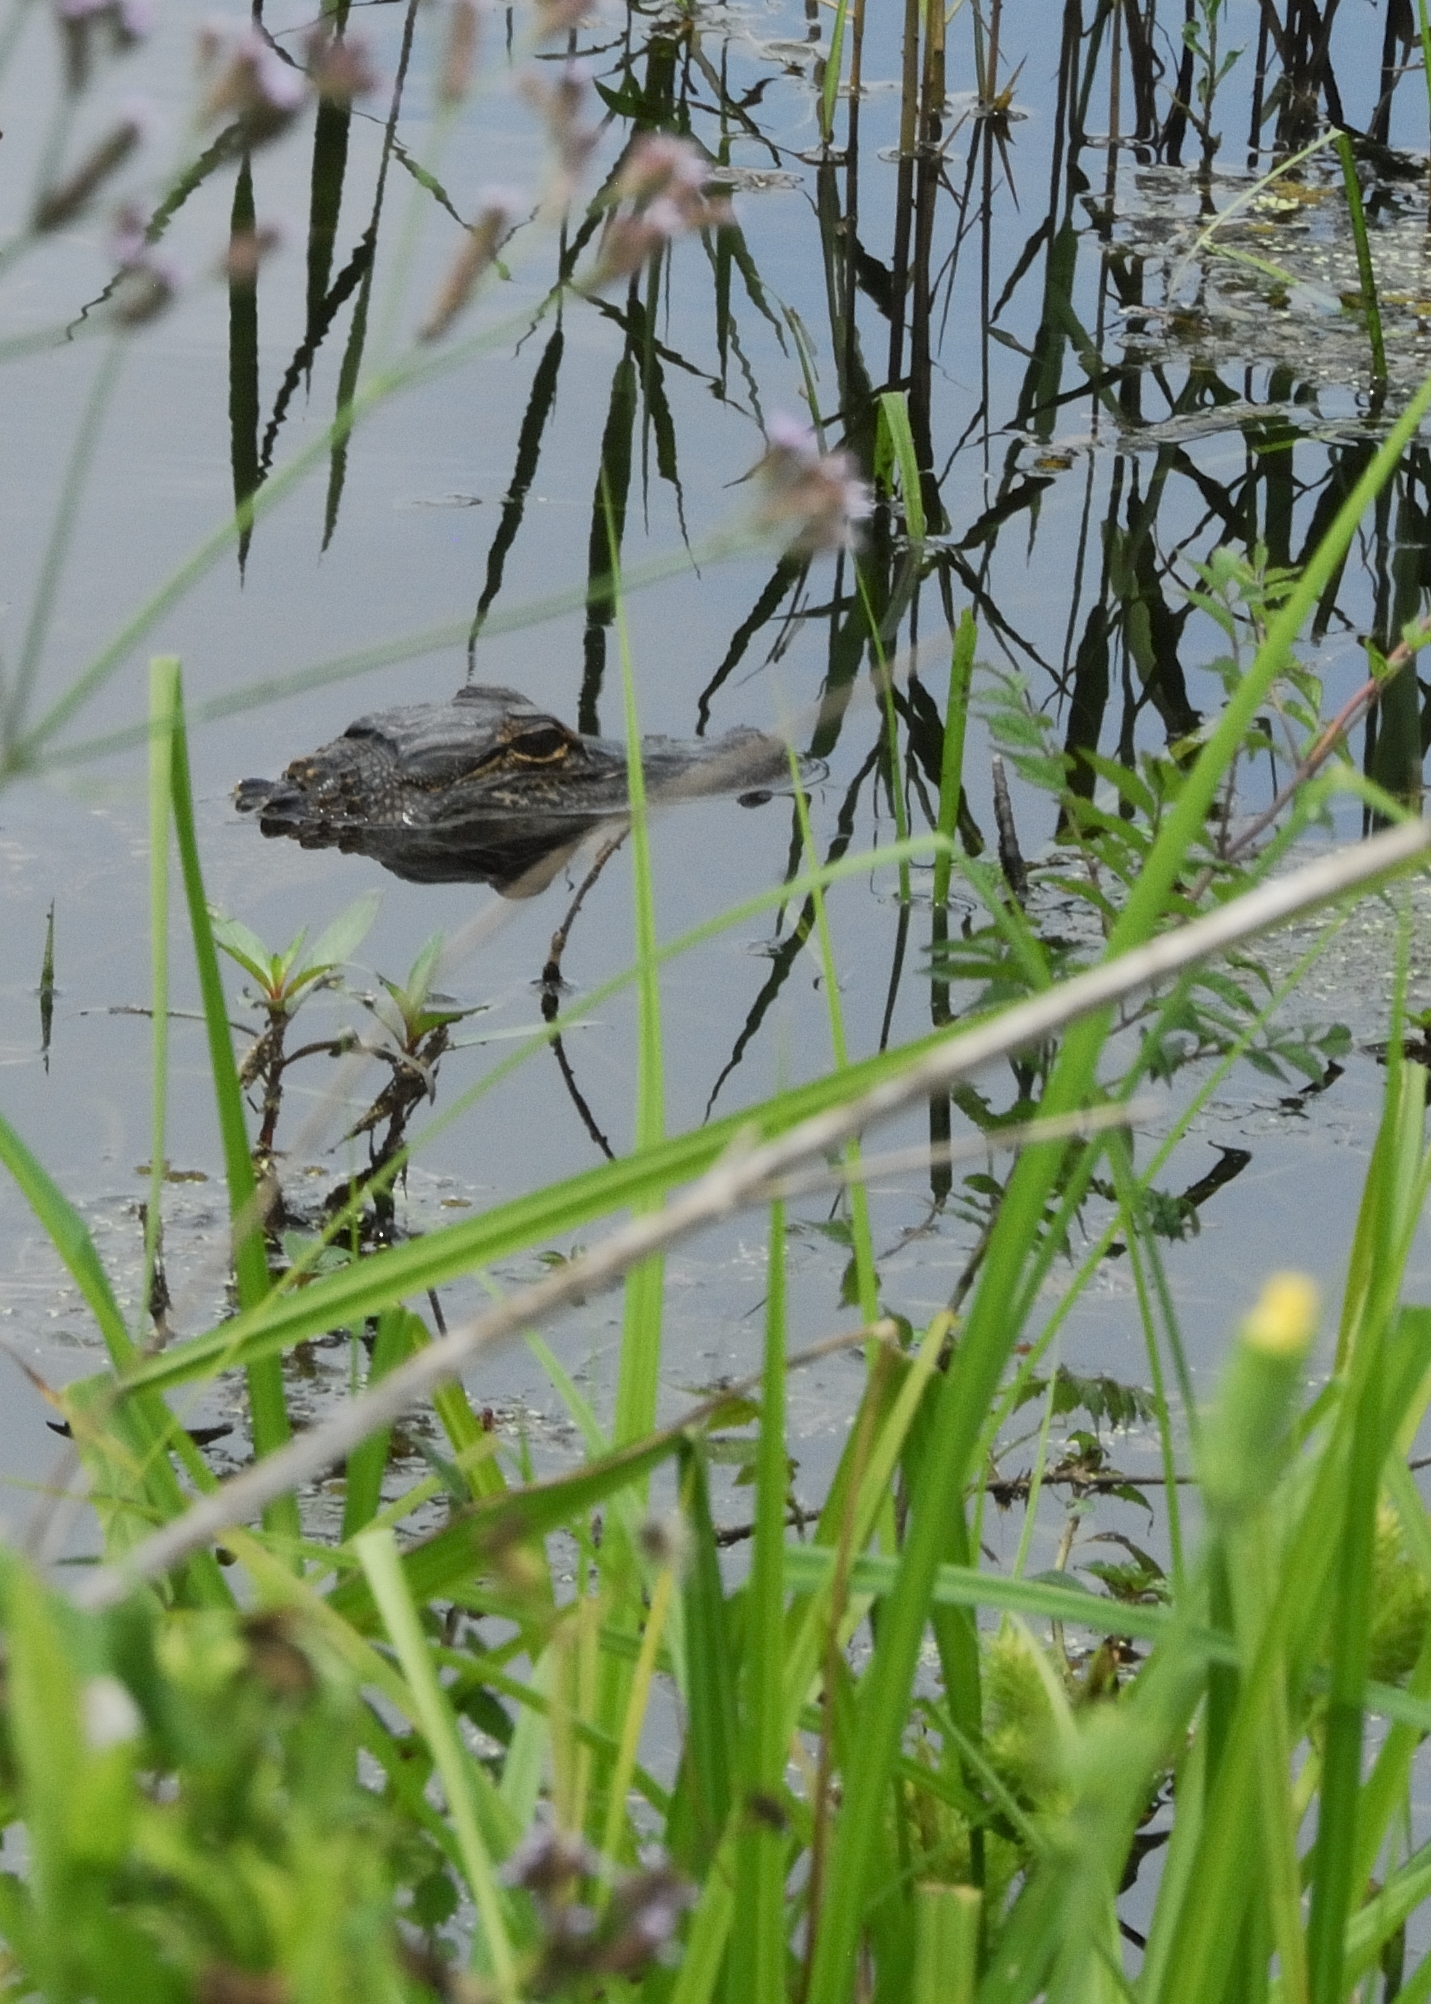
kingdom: Animalia
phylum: Chordata
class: Crocodylia
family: Alligatoridae
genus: Alligator
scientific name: Alligator mississippiensis
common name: American alligator
